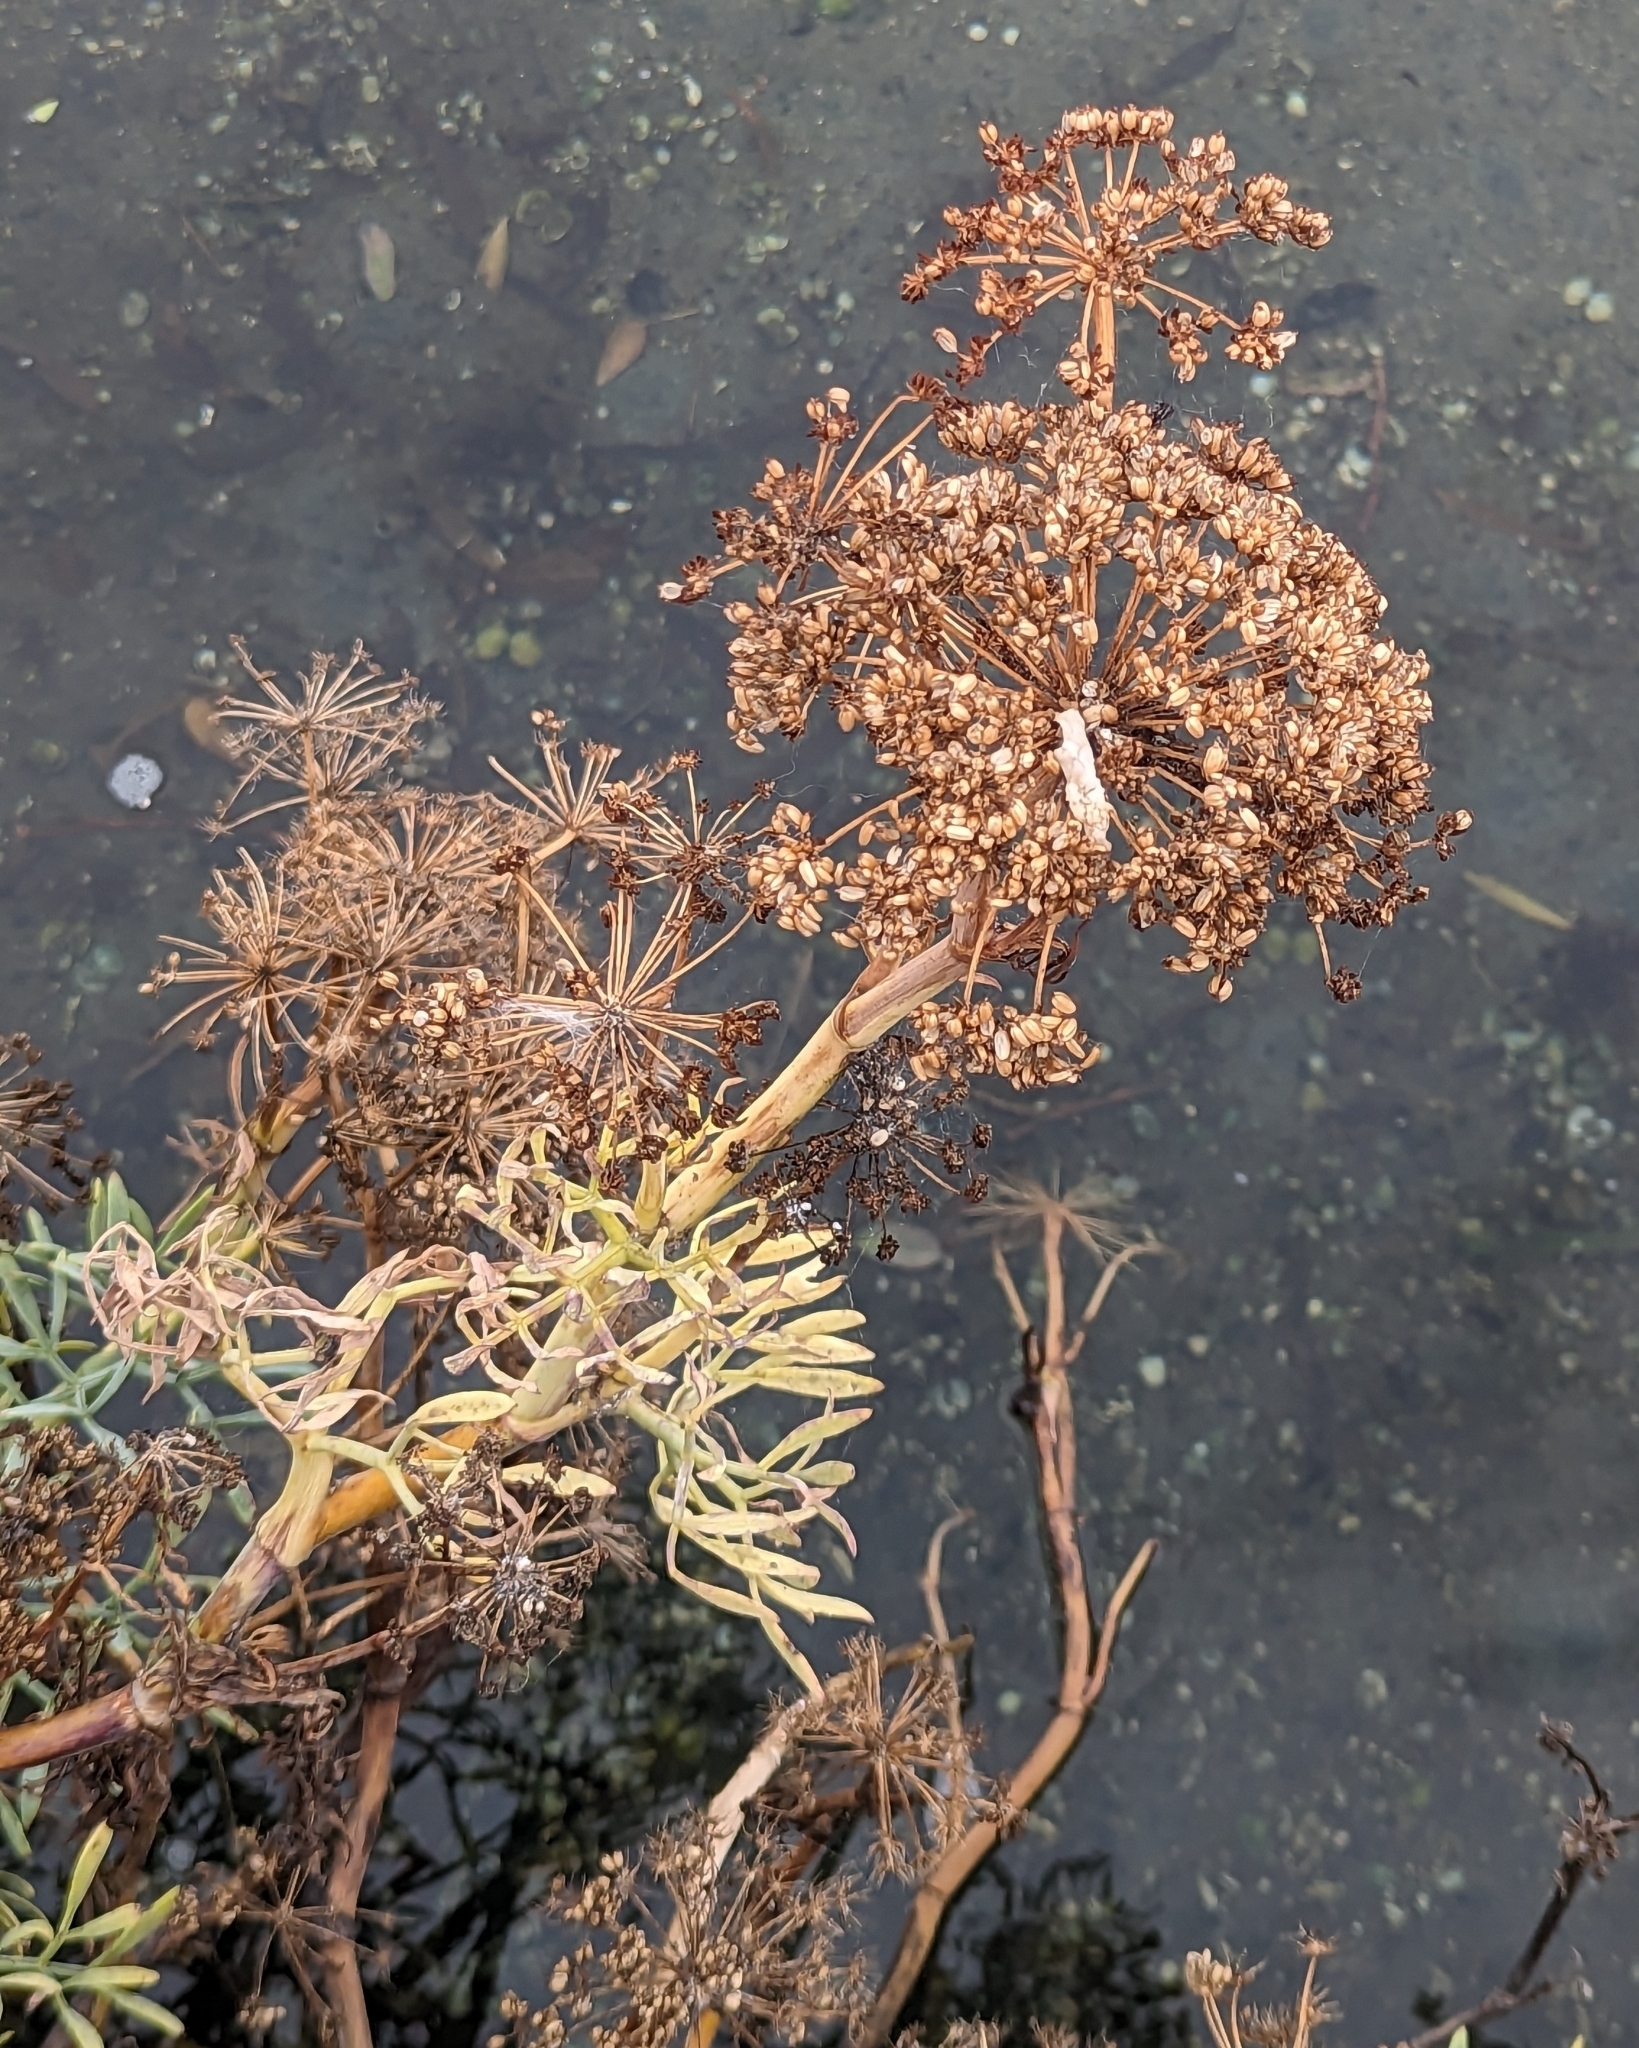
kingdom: Plantae
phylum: Tracheophyta
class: Magnoliopsida
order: Apiales
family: Apiaceae
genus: Crithmum
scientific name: Crithmum maritimum
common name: Rock samphire
